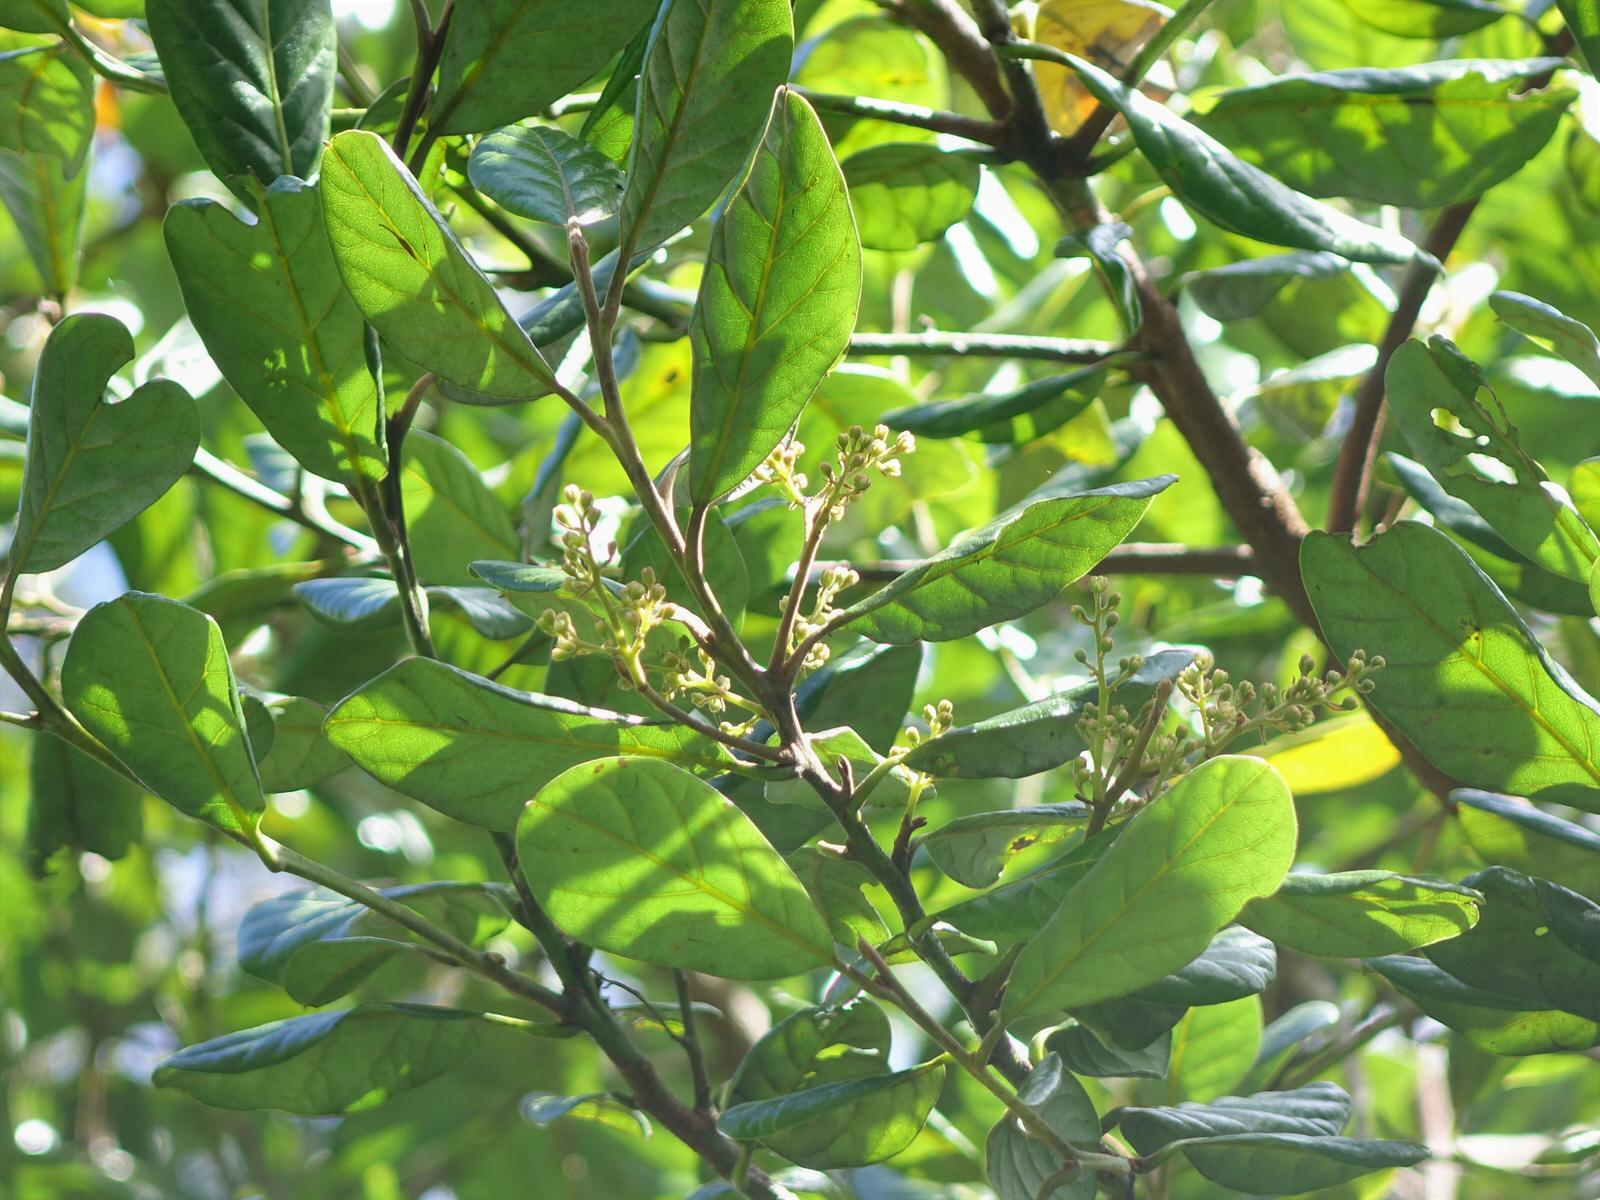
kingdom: Plantae
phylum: Tracheophyta
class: Magnoliopsida
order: Laurales
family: Lauraceae
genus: Beilschmiedia
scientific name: Beilschmiedia tarairi
